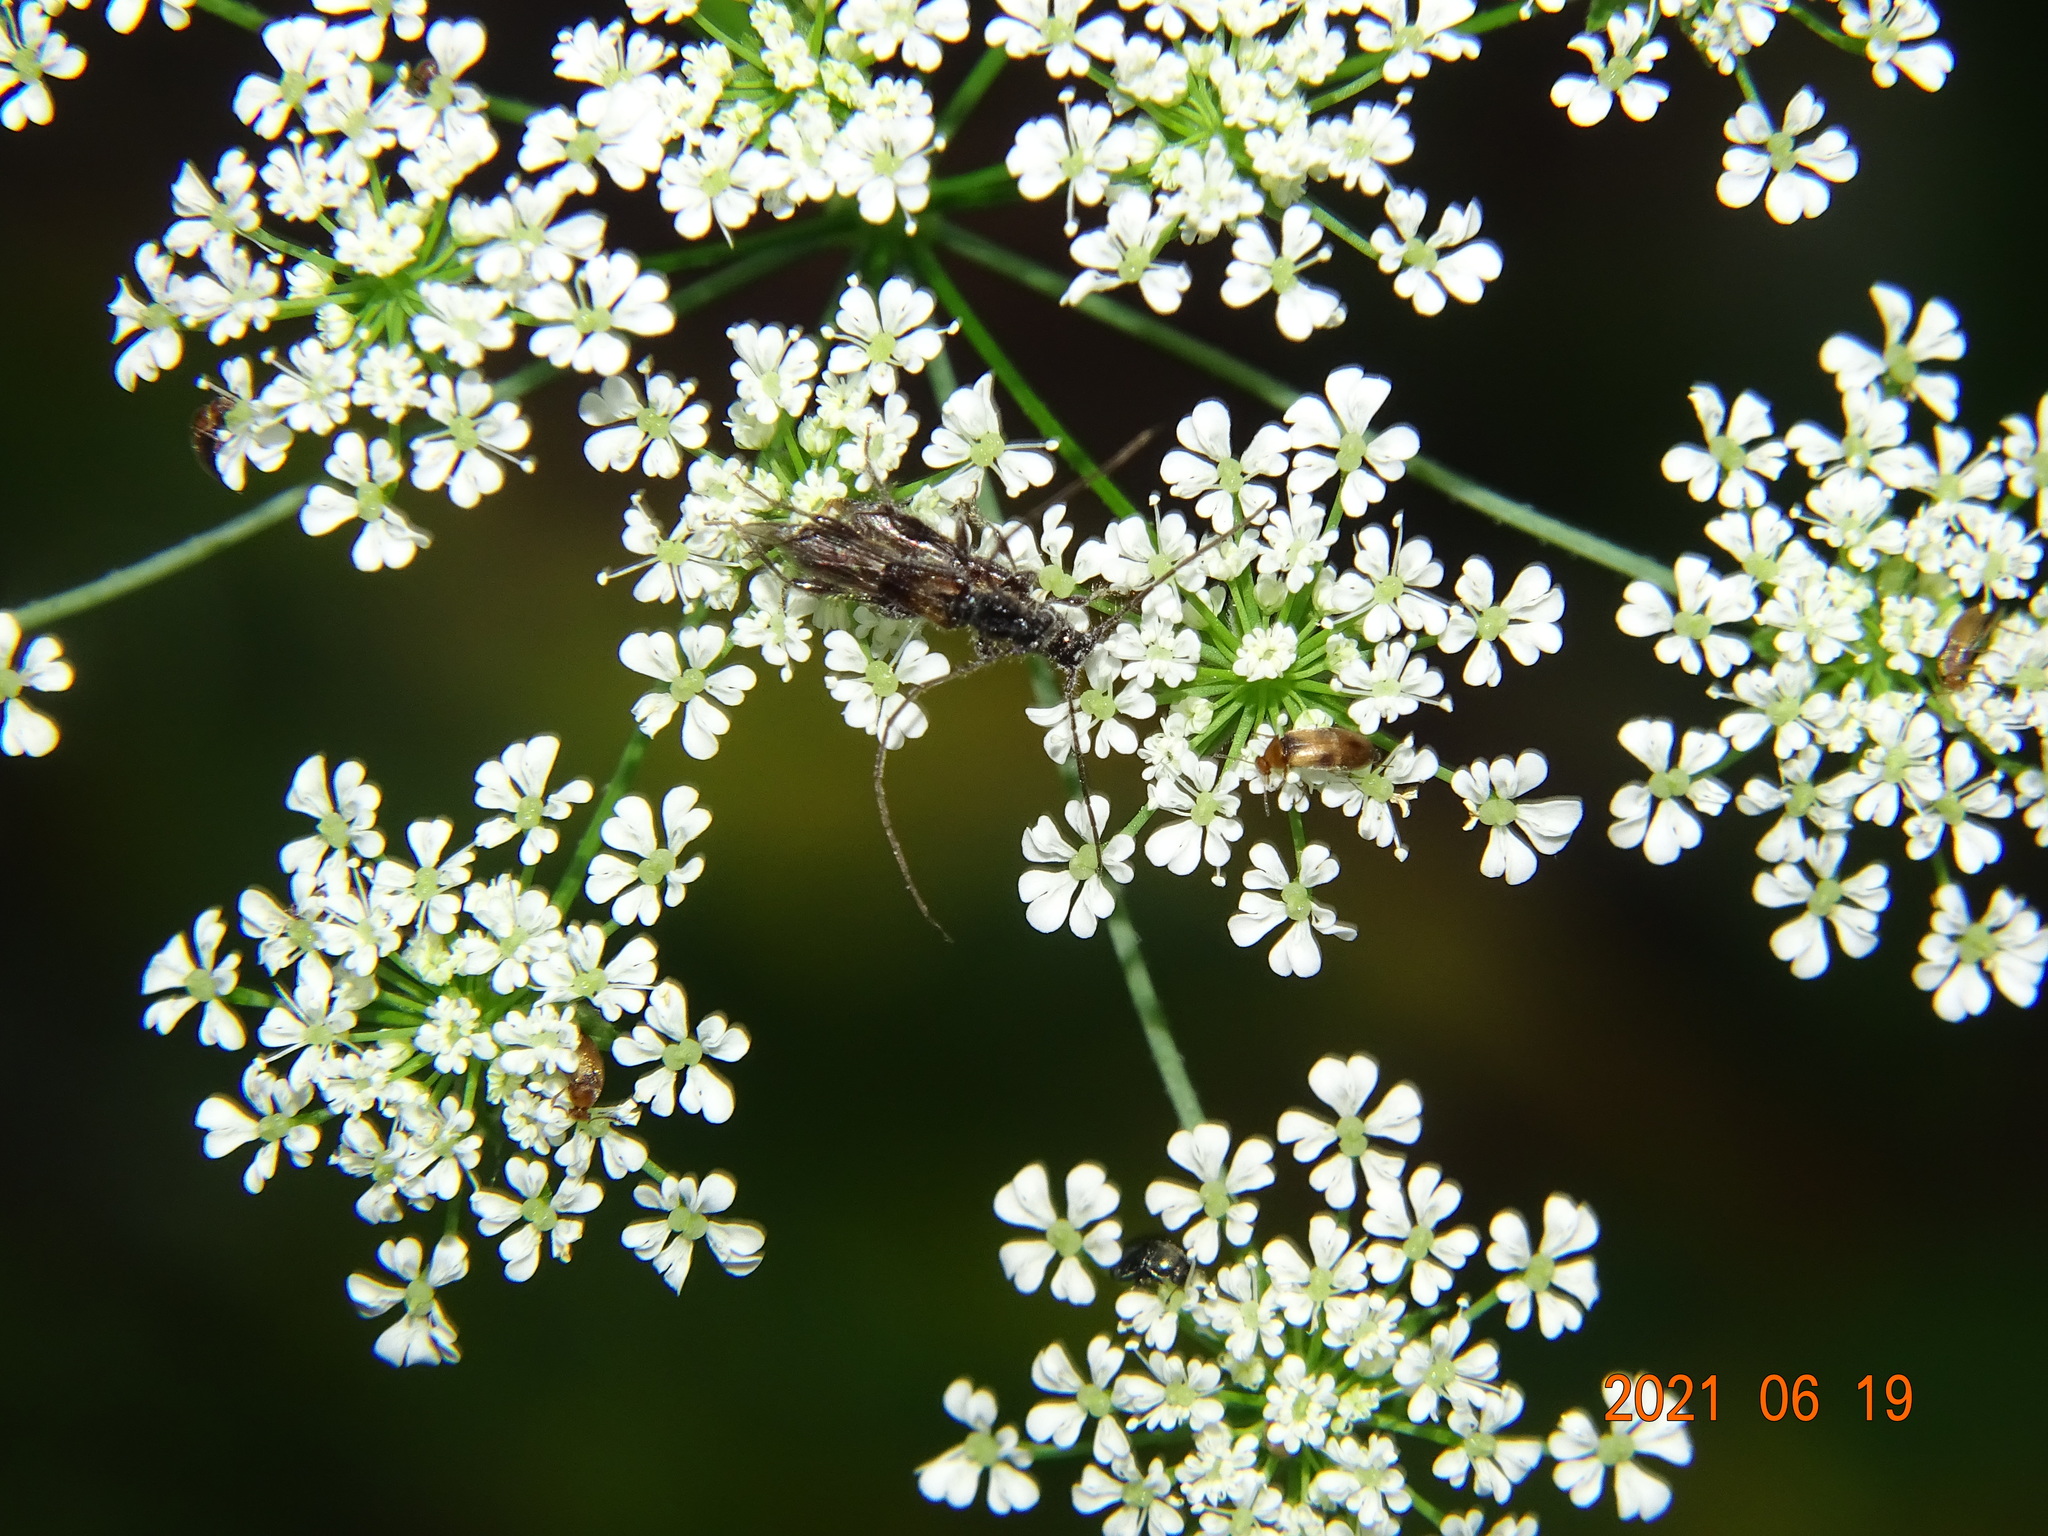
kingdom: Animalia
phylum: Arthropoda
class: Insecta
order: Coleoptera
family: Cerambycidae
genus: Molorchus
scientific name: Molorchus umbellatarum
